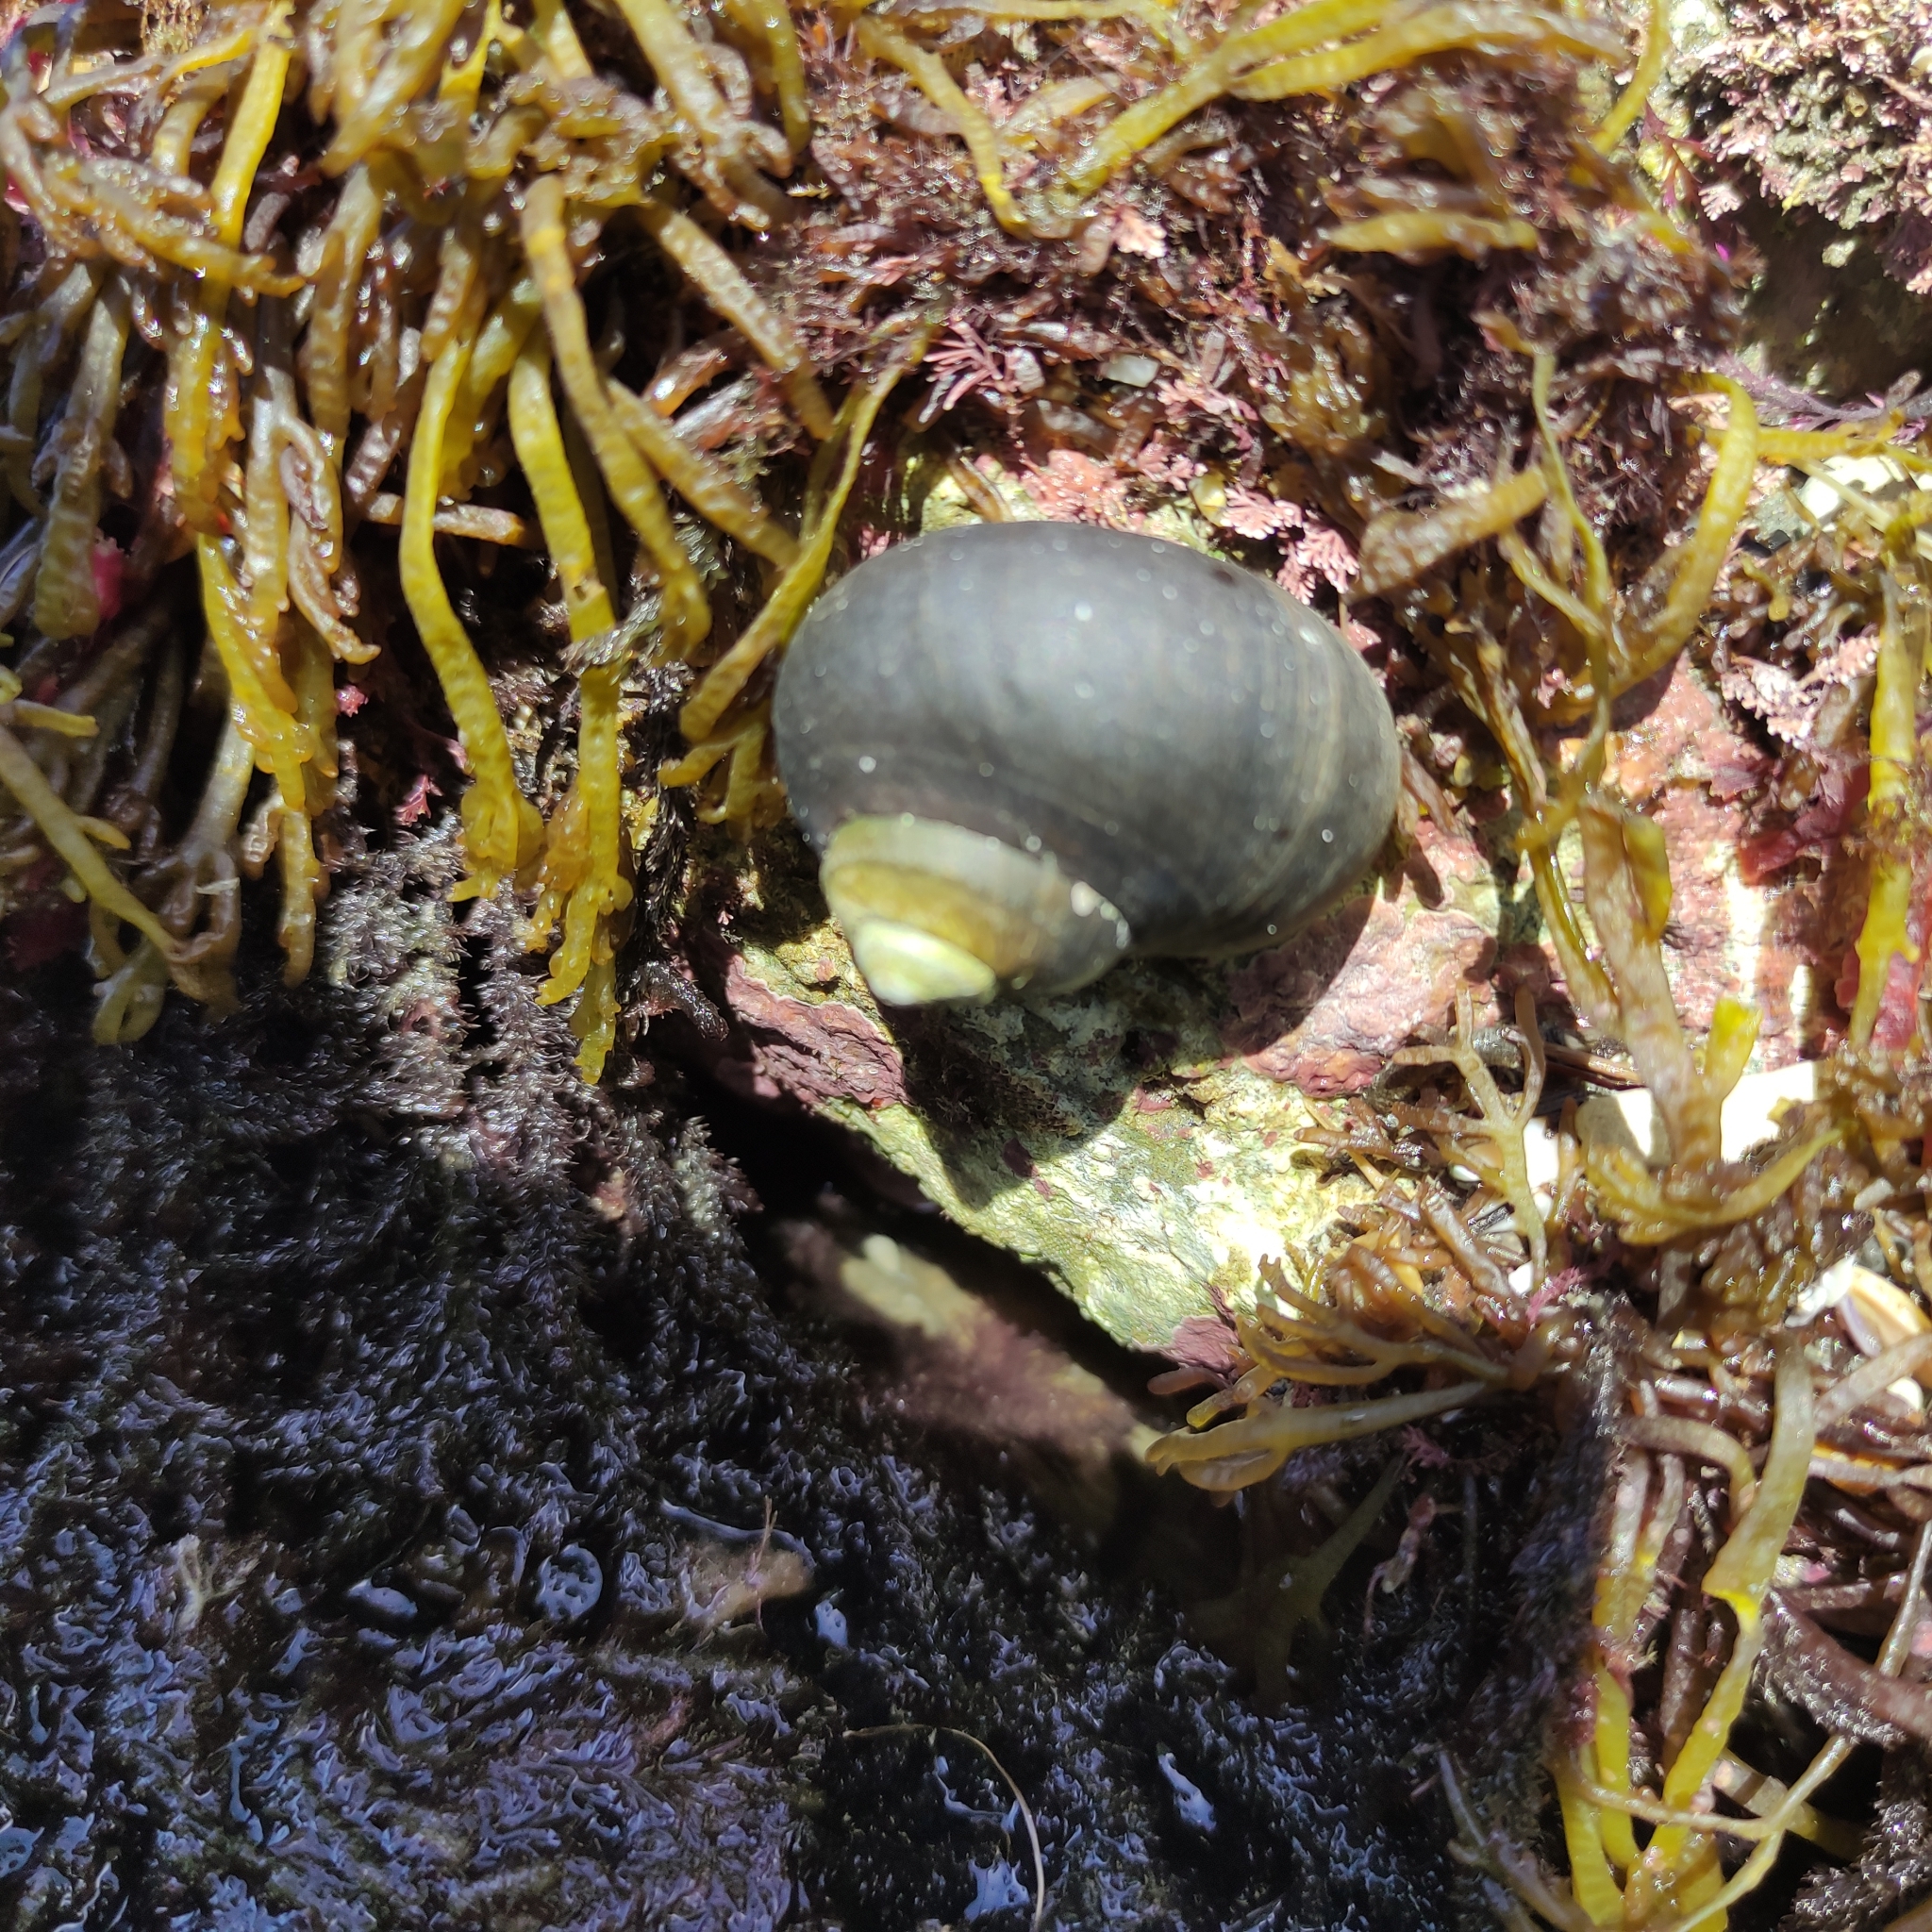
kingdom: Animalia
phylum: Mollusca
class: Gastropoda
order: Trochida
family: Turbinidae
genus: Lunella
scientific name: Lunella smaragda
